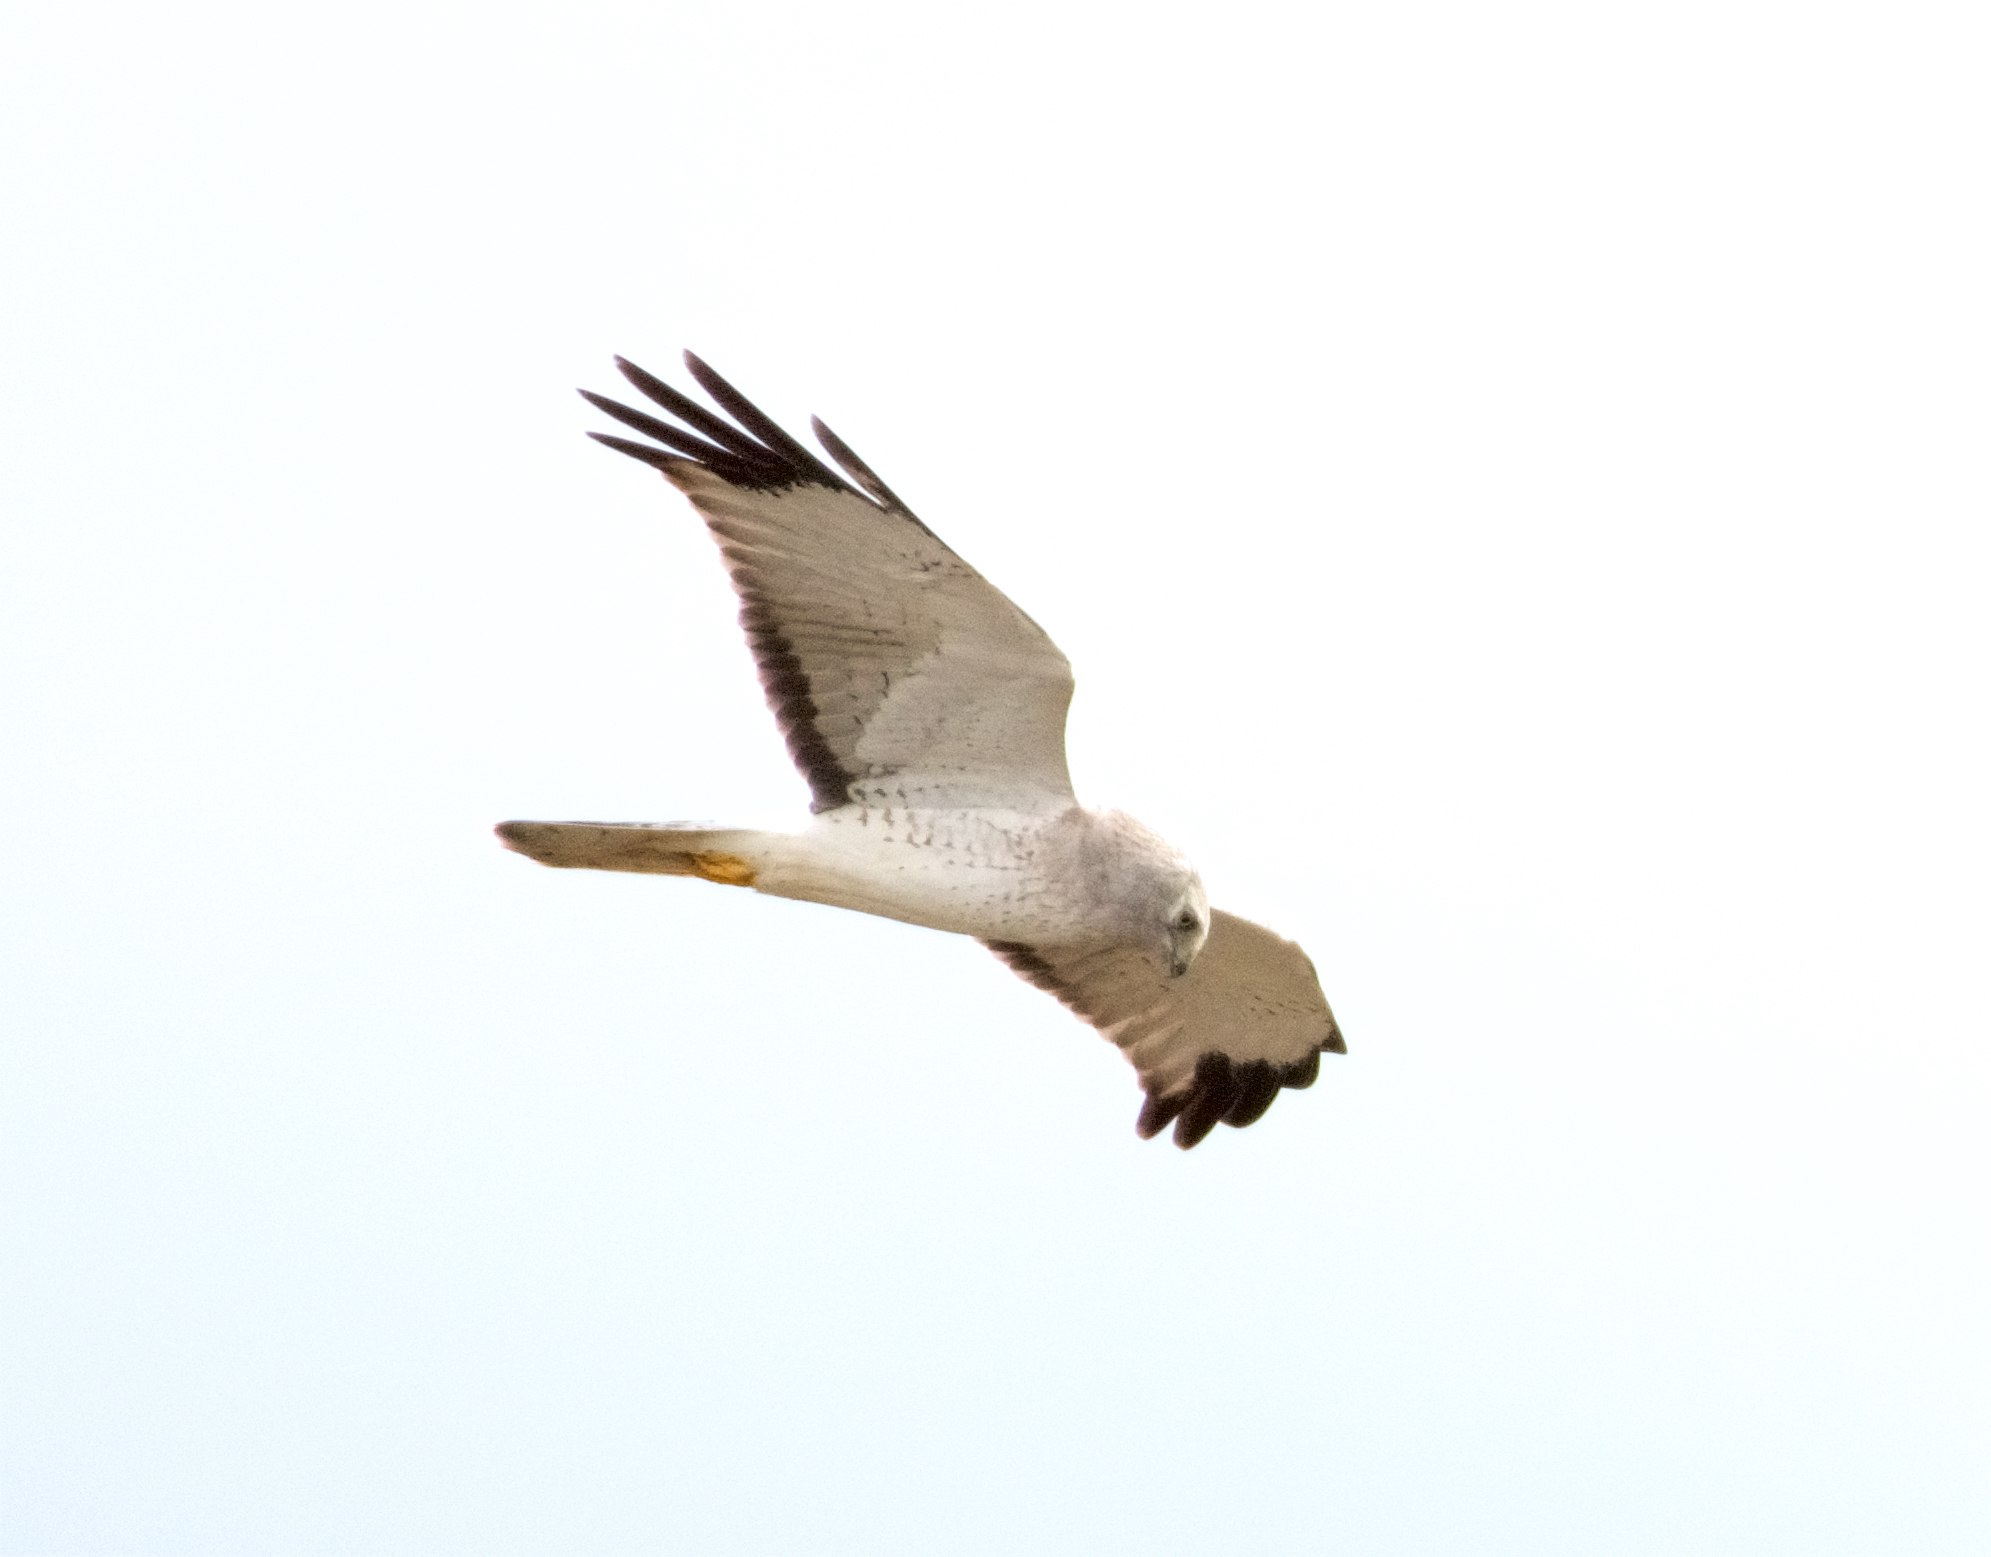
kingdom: Animalia
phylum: Chordata
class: Aves
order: Accipitriformes
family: Accipitridae
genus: Circus
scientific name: Circus cyaneus
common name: Hen harrier
